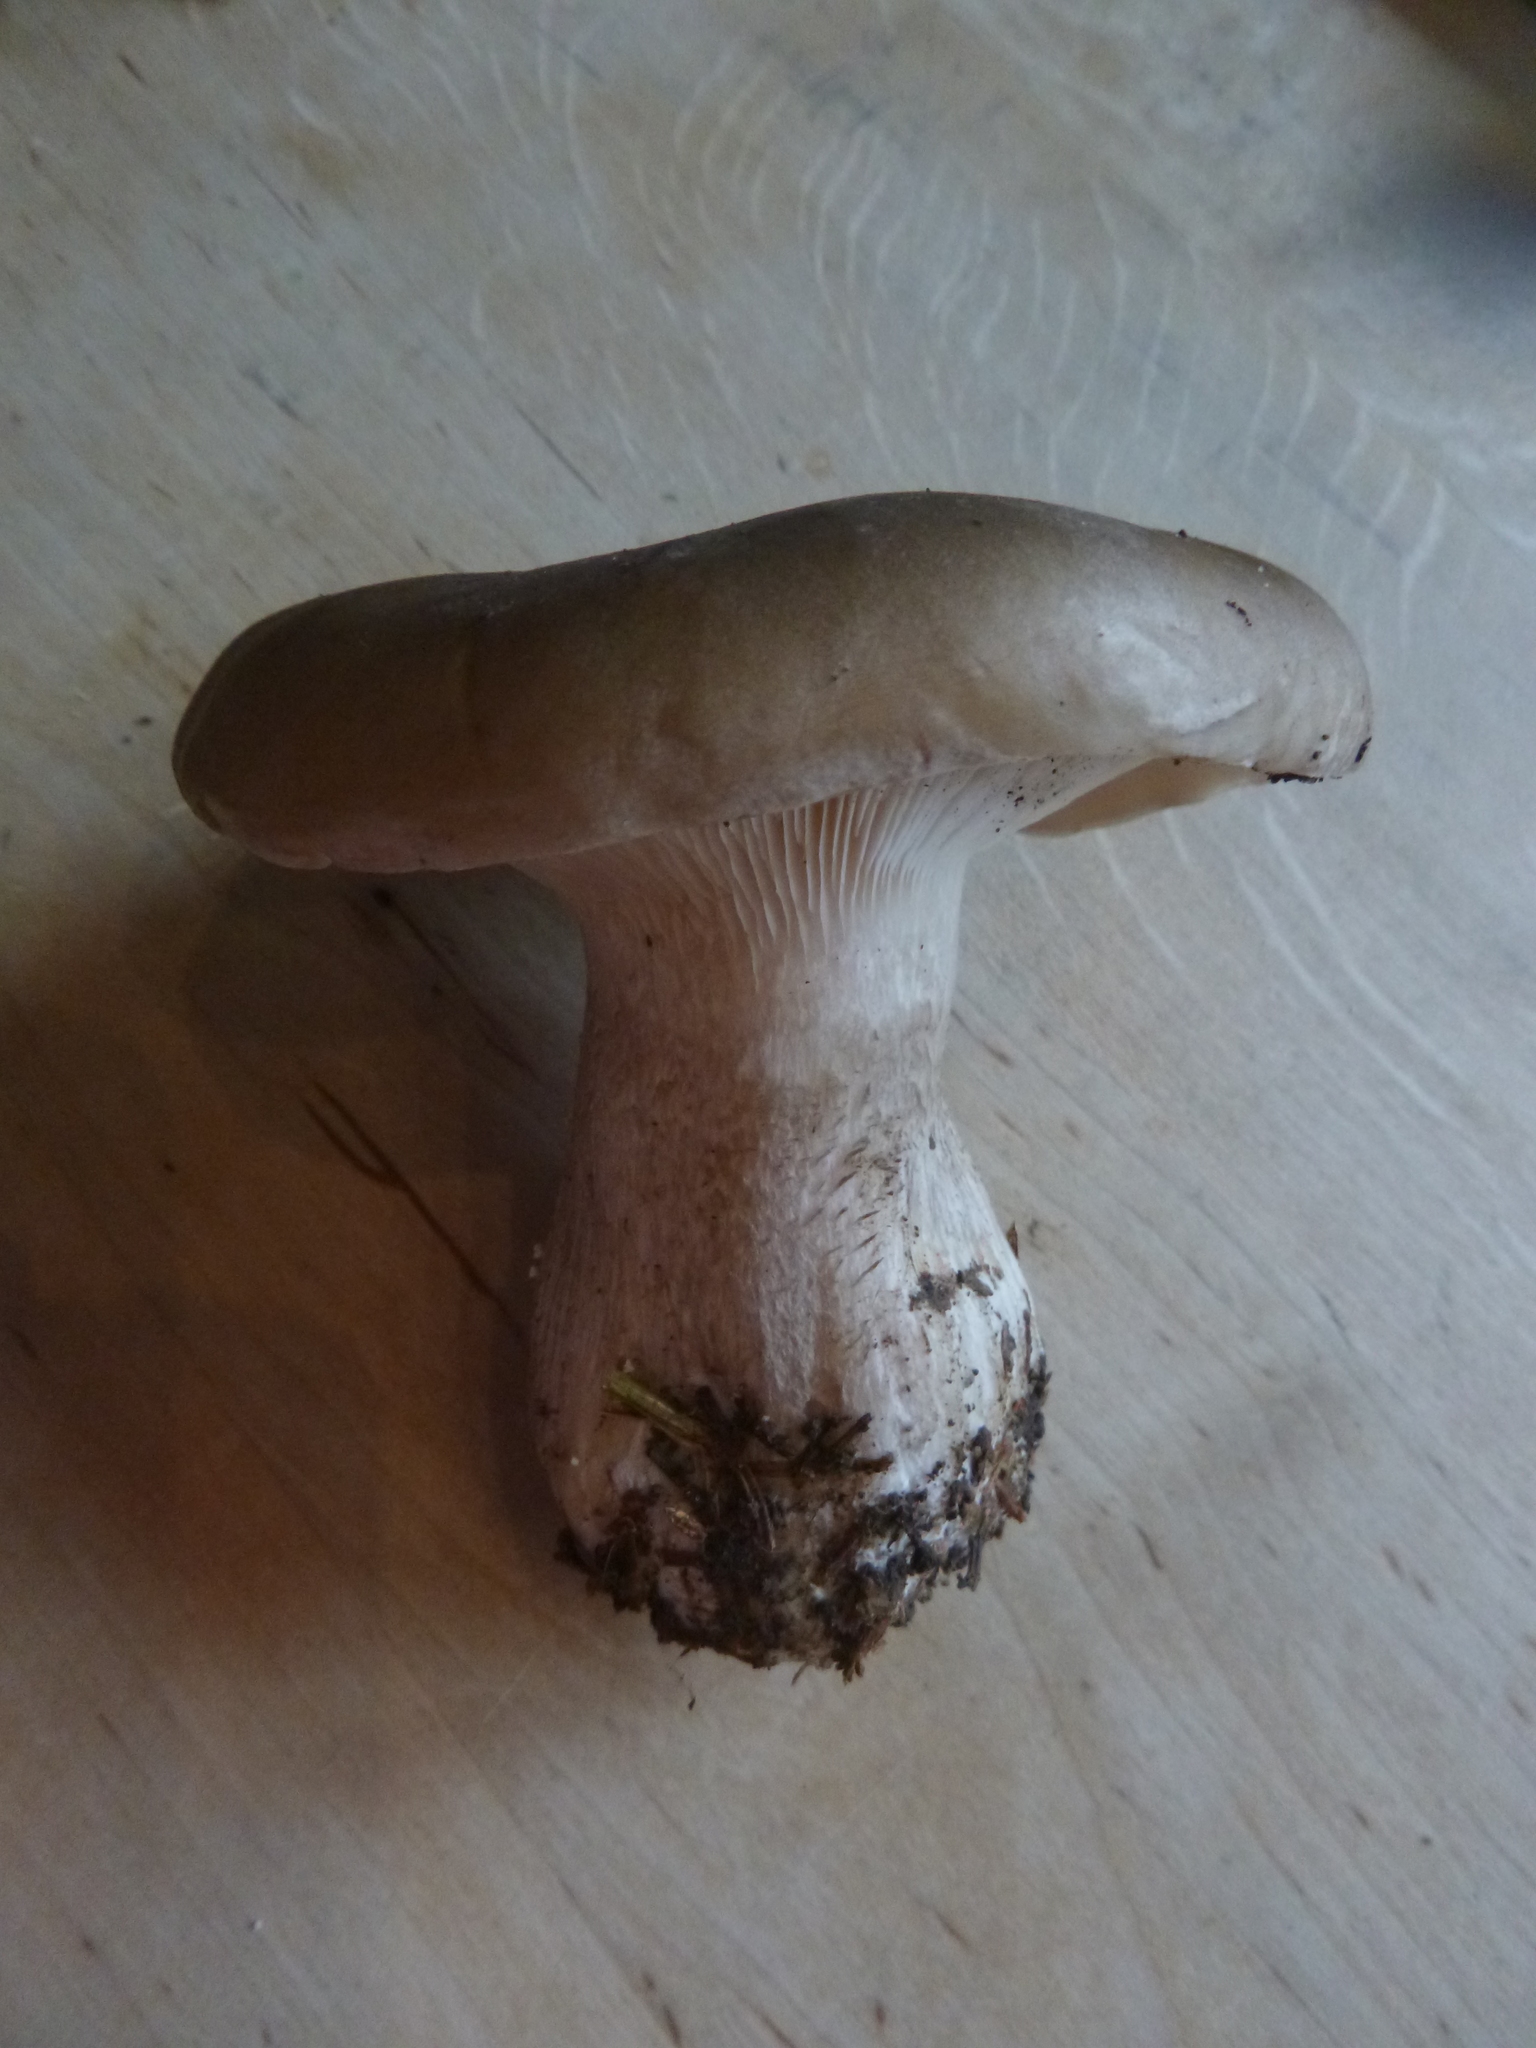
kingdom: Fungi
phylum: Basidiomycota
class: Agaricomycetes
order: Agaricales
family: Tricholomataceae
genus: Clitocybe
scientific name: Clitocybe nebularis
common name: Clouded agaric
